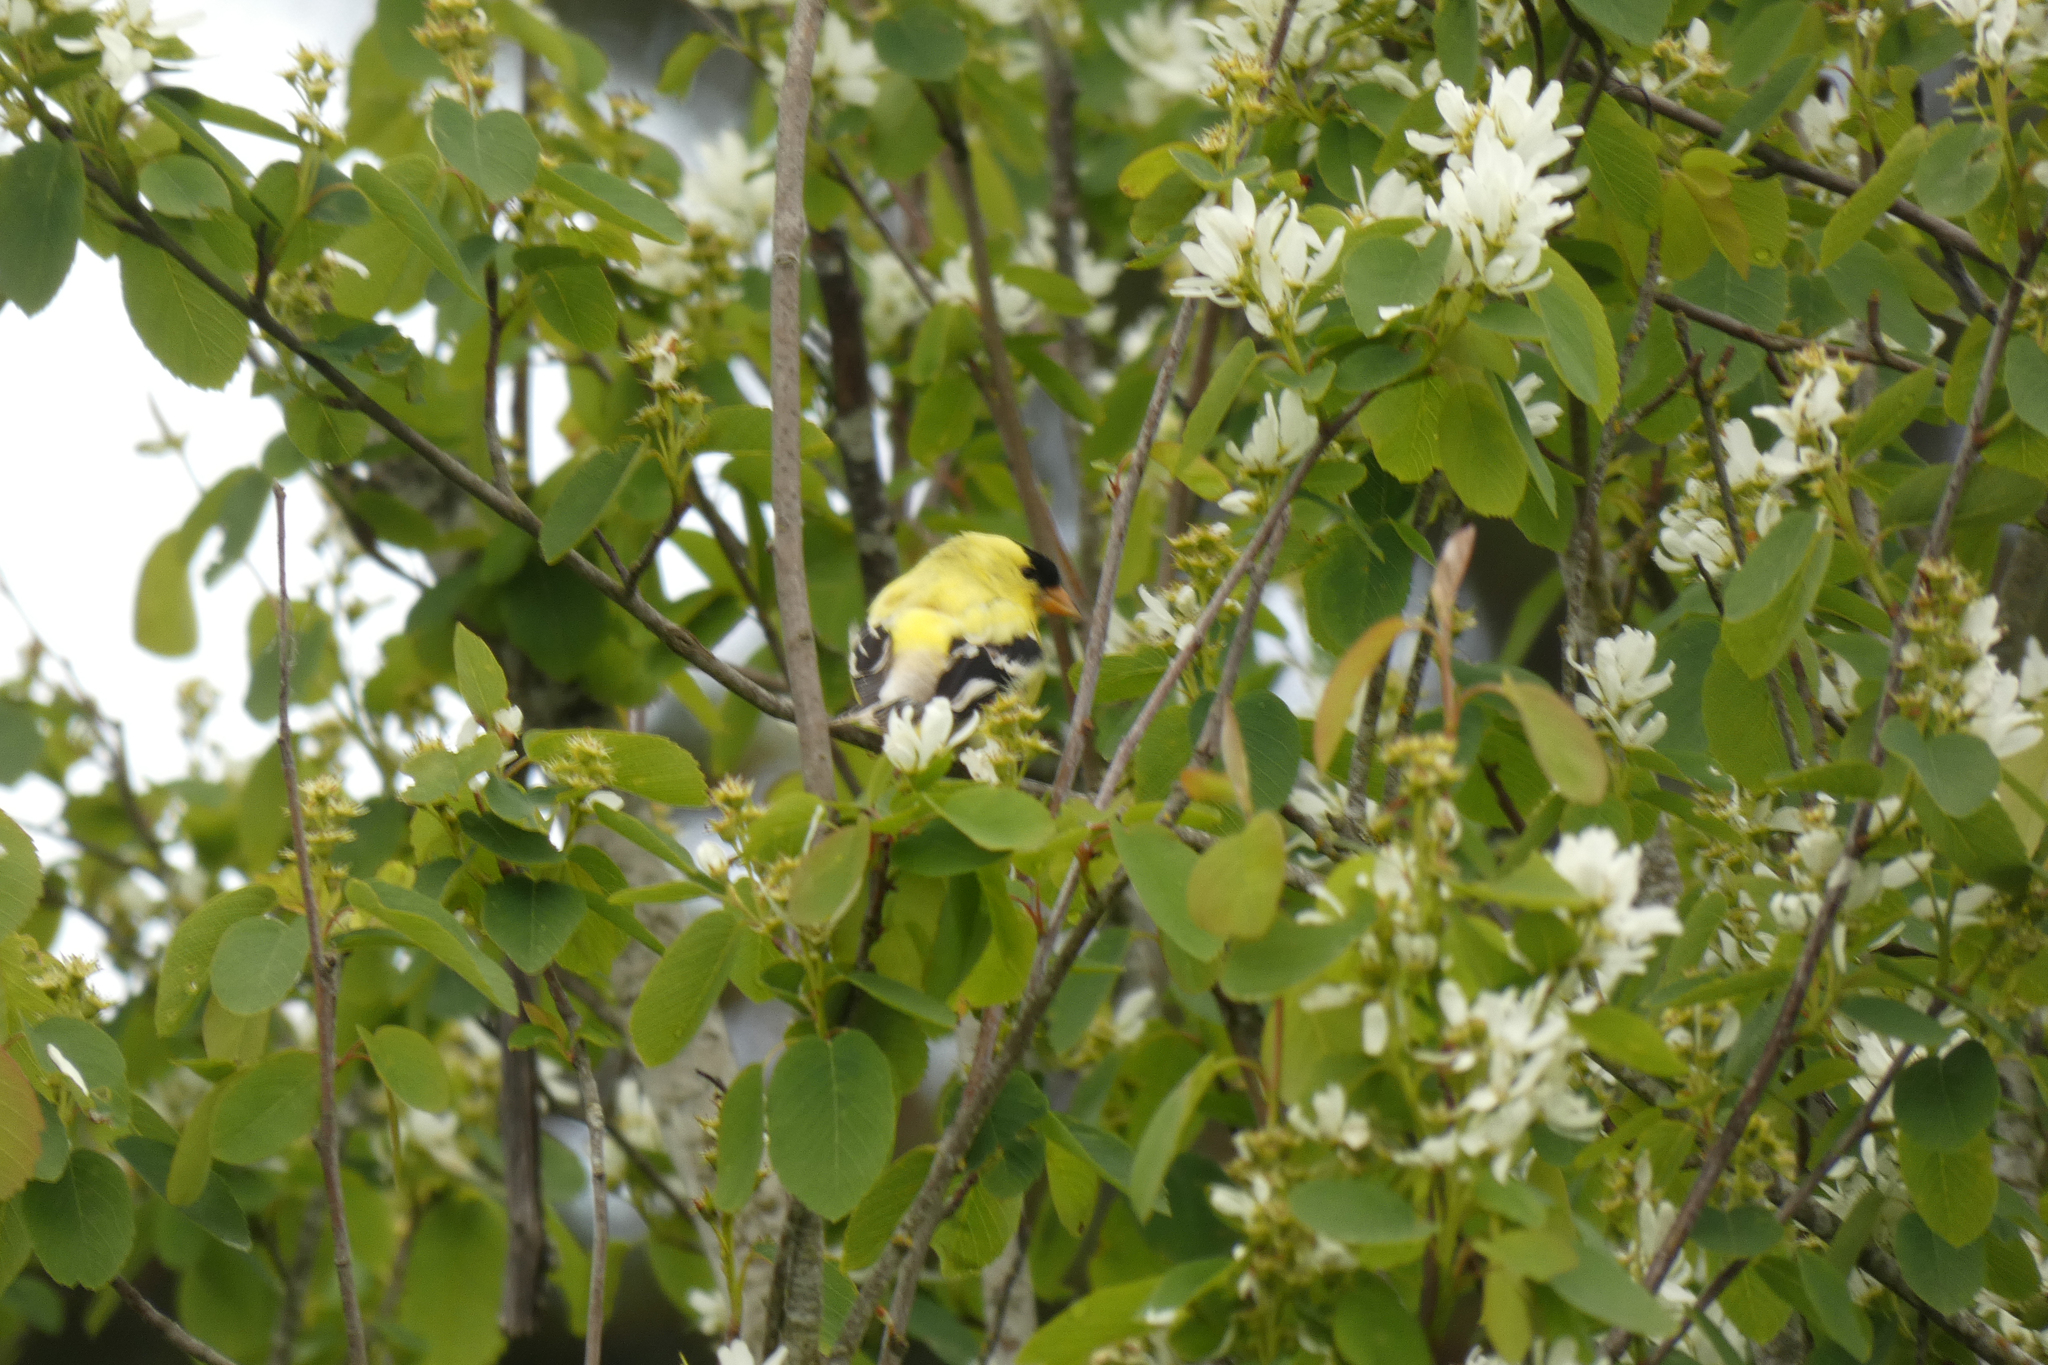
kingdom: Animalia
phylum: Chordata
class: Aves
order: Passeriformes
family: Fringillidae
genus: Spinus
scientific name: Spinus tristis
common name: American goldfinch
